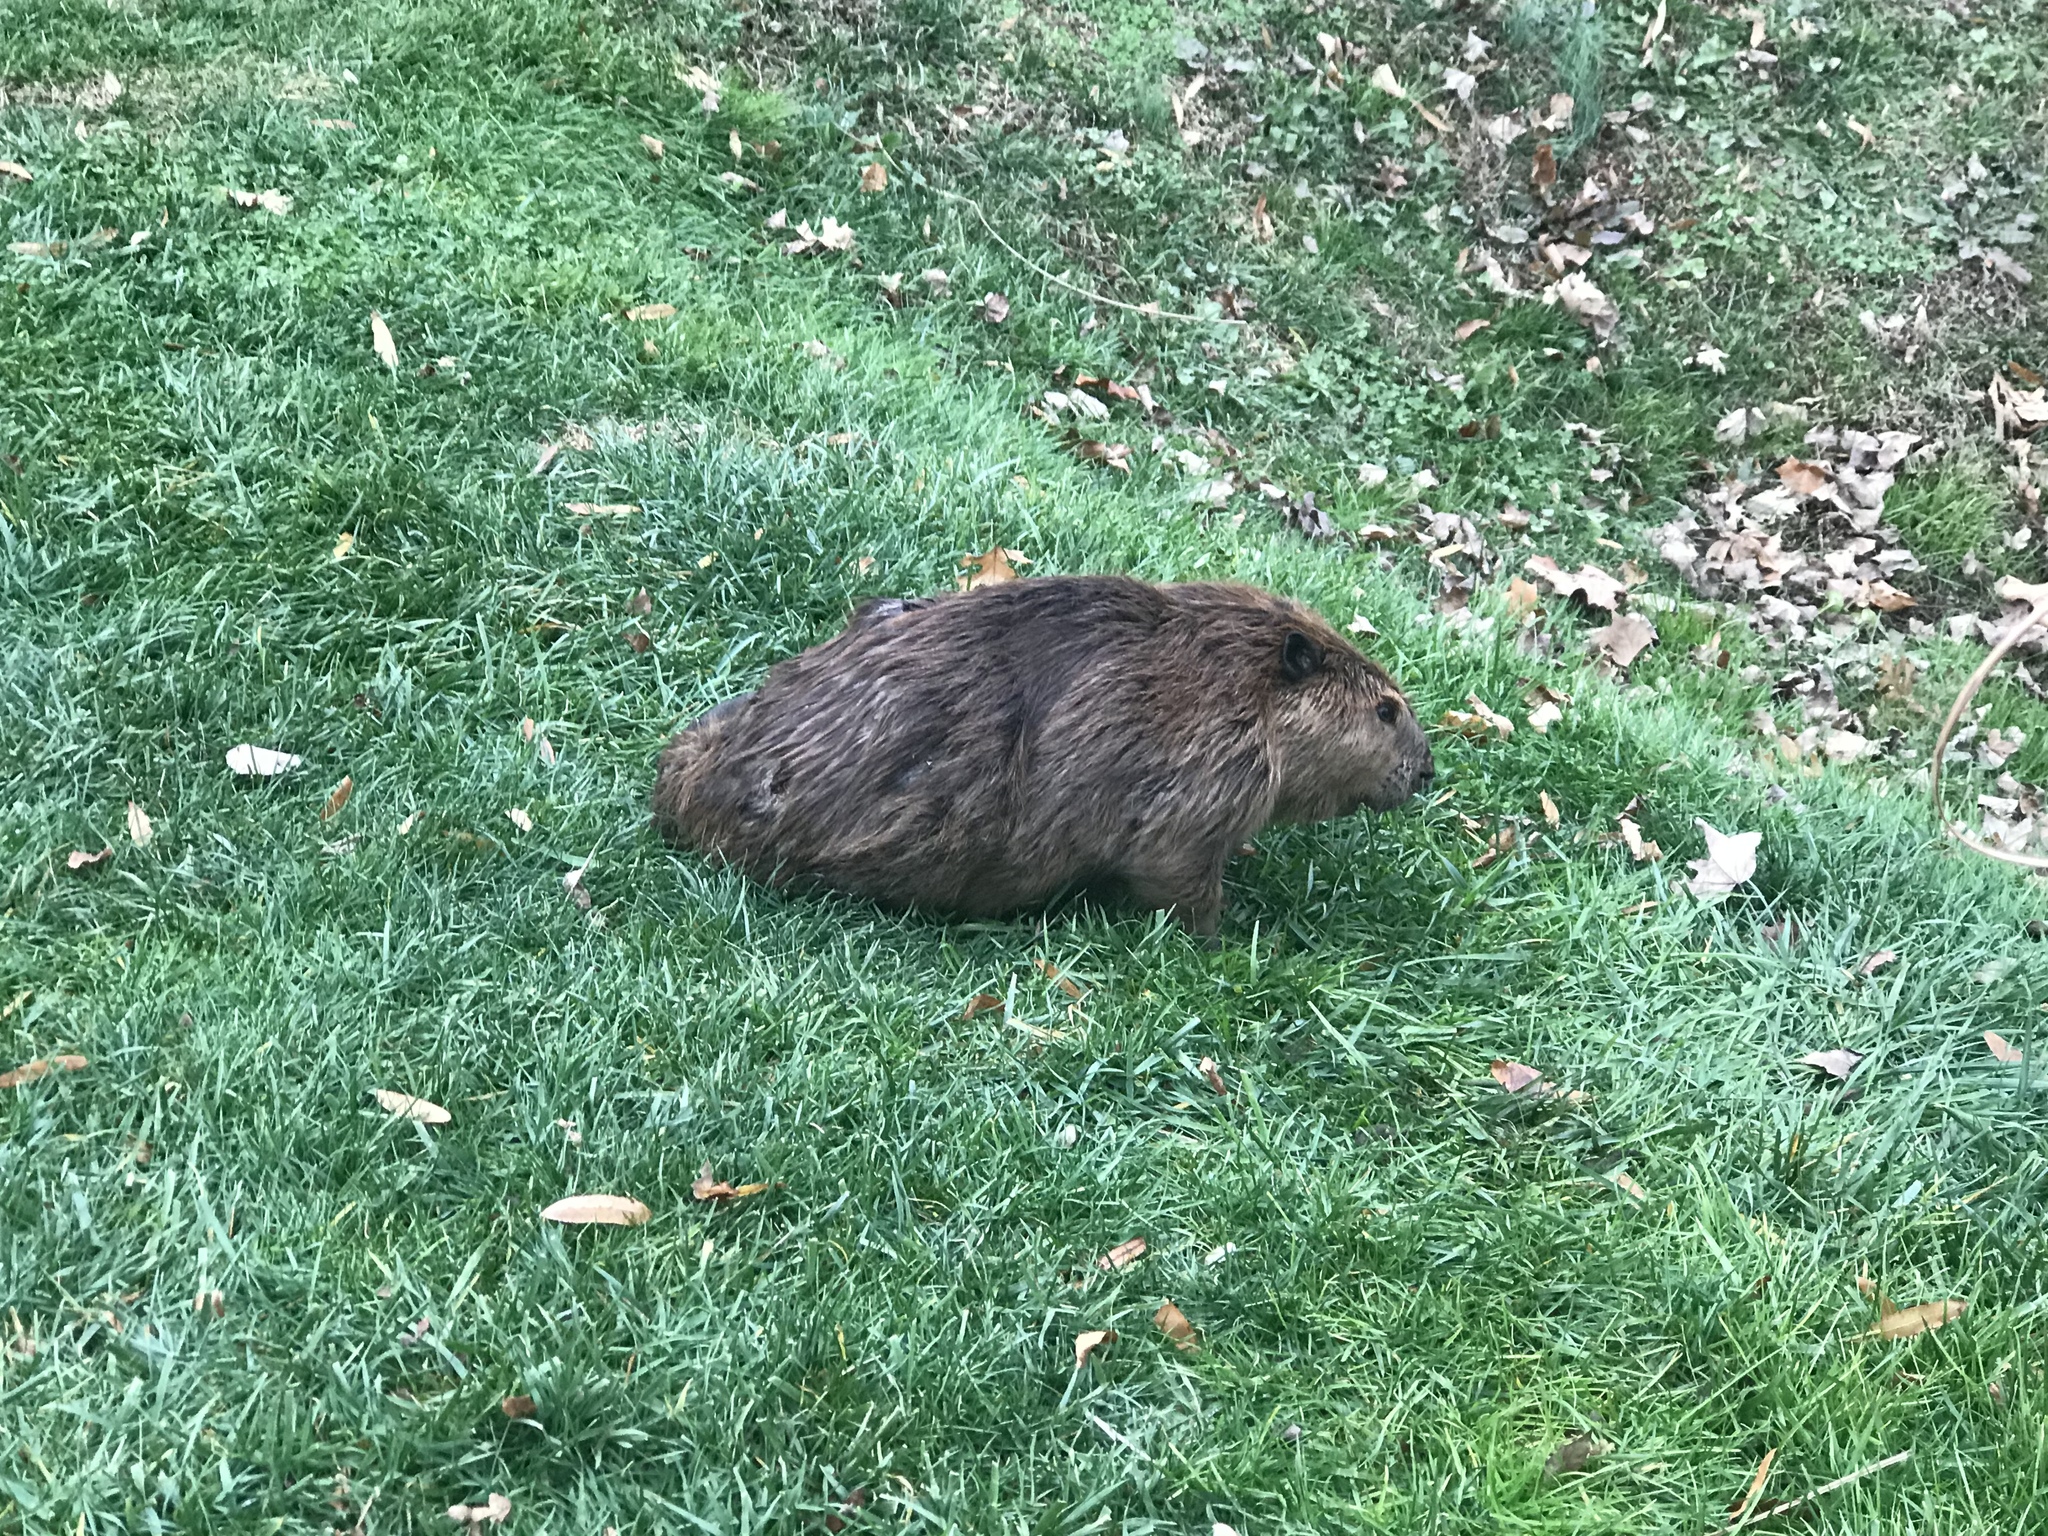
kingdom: Animalia
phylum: Chordata
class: Mammalia
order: Rodentia
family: Castoridae
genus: Castor
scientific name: Castor canadensis
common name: American beaver
